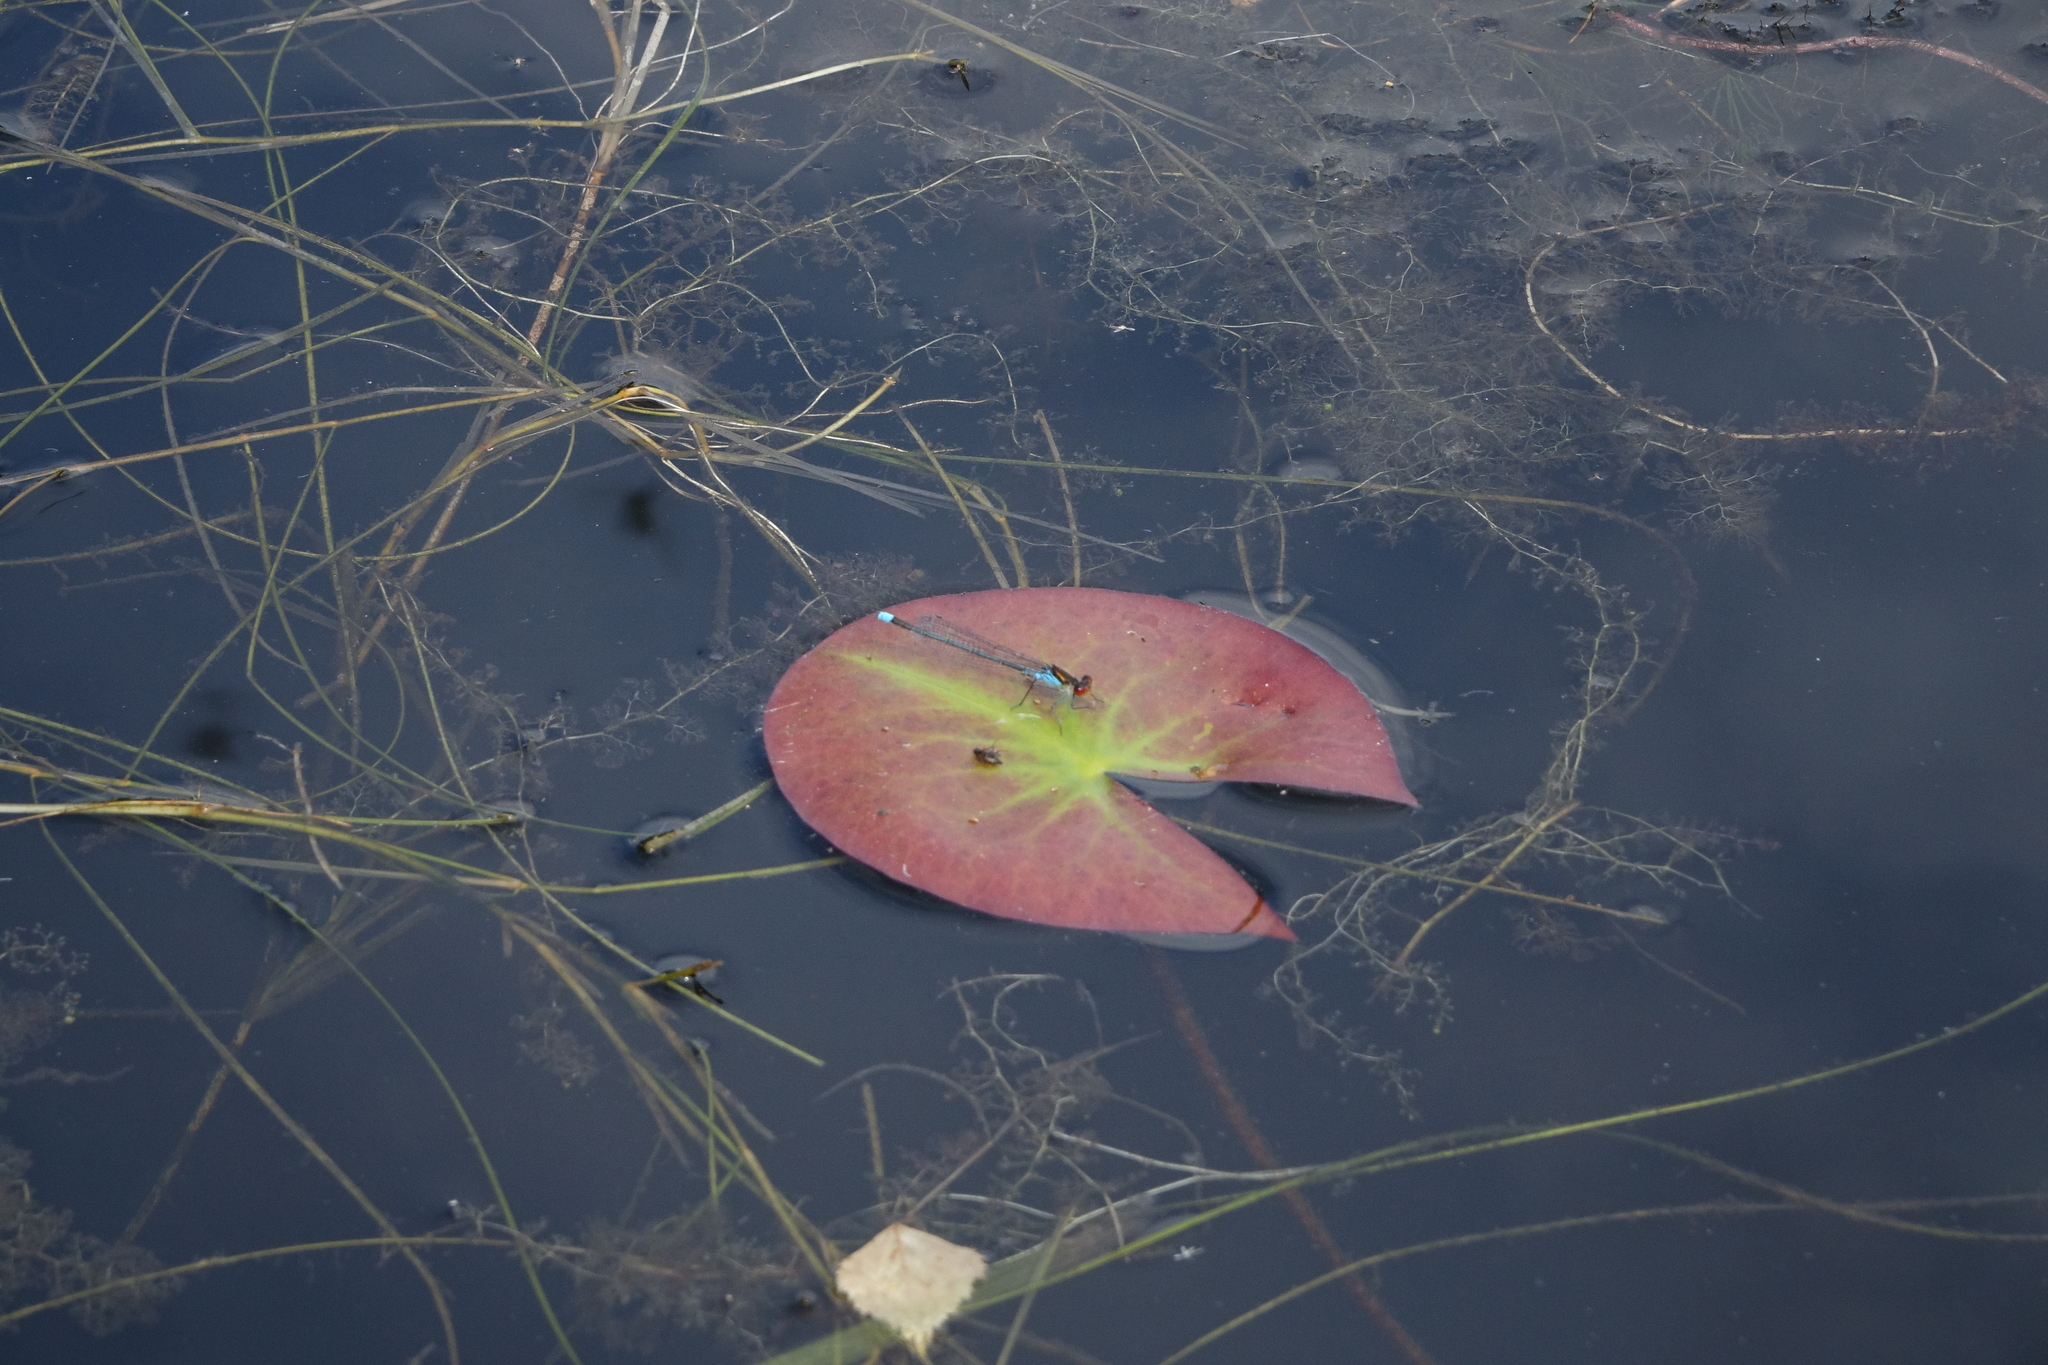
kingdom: Animalia
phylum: Arthropoda
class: Insecta
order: Odonata
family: Coenagrionidae
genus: Erythromma
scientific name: Erythromma najas
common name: Red-eyed damselfly
